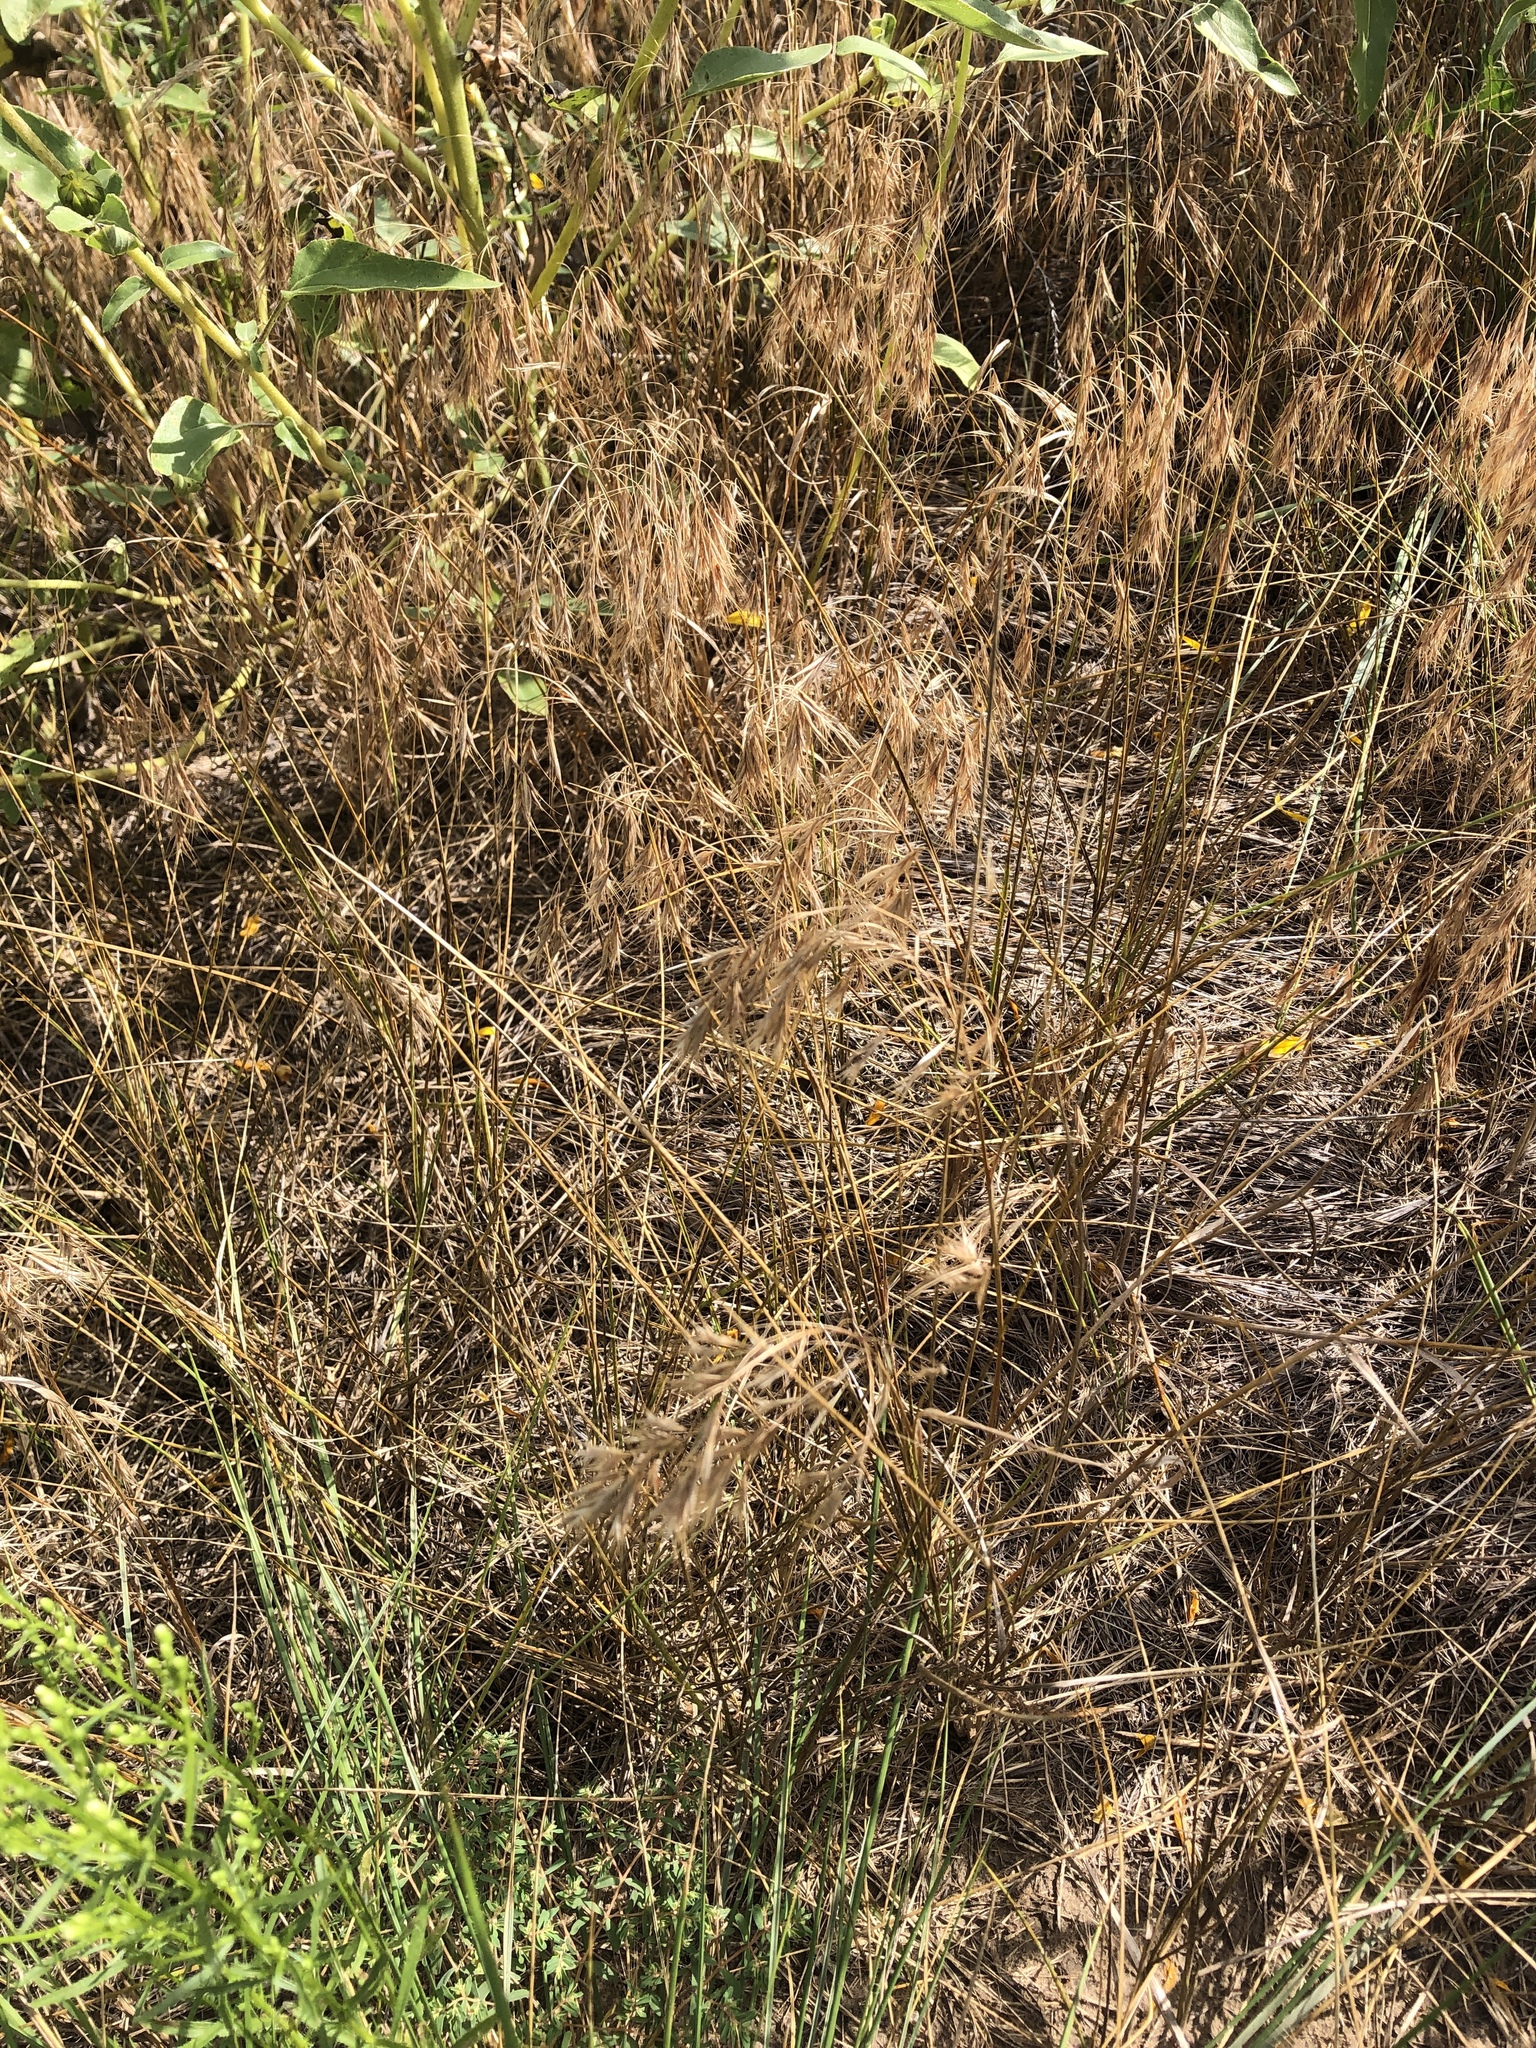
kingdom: Plantae
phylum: Tracheophyta
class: Liliopsida
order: Poales
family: Poaceae
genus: Bromus
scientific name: Bromus tectorum
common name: Cheatgrass
